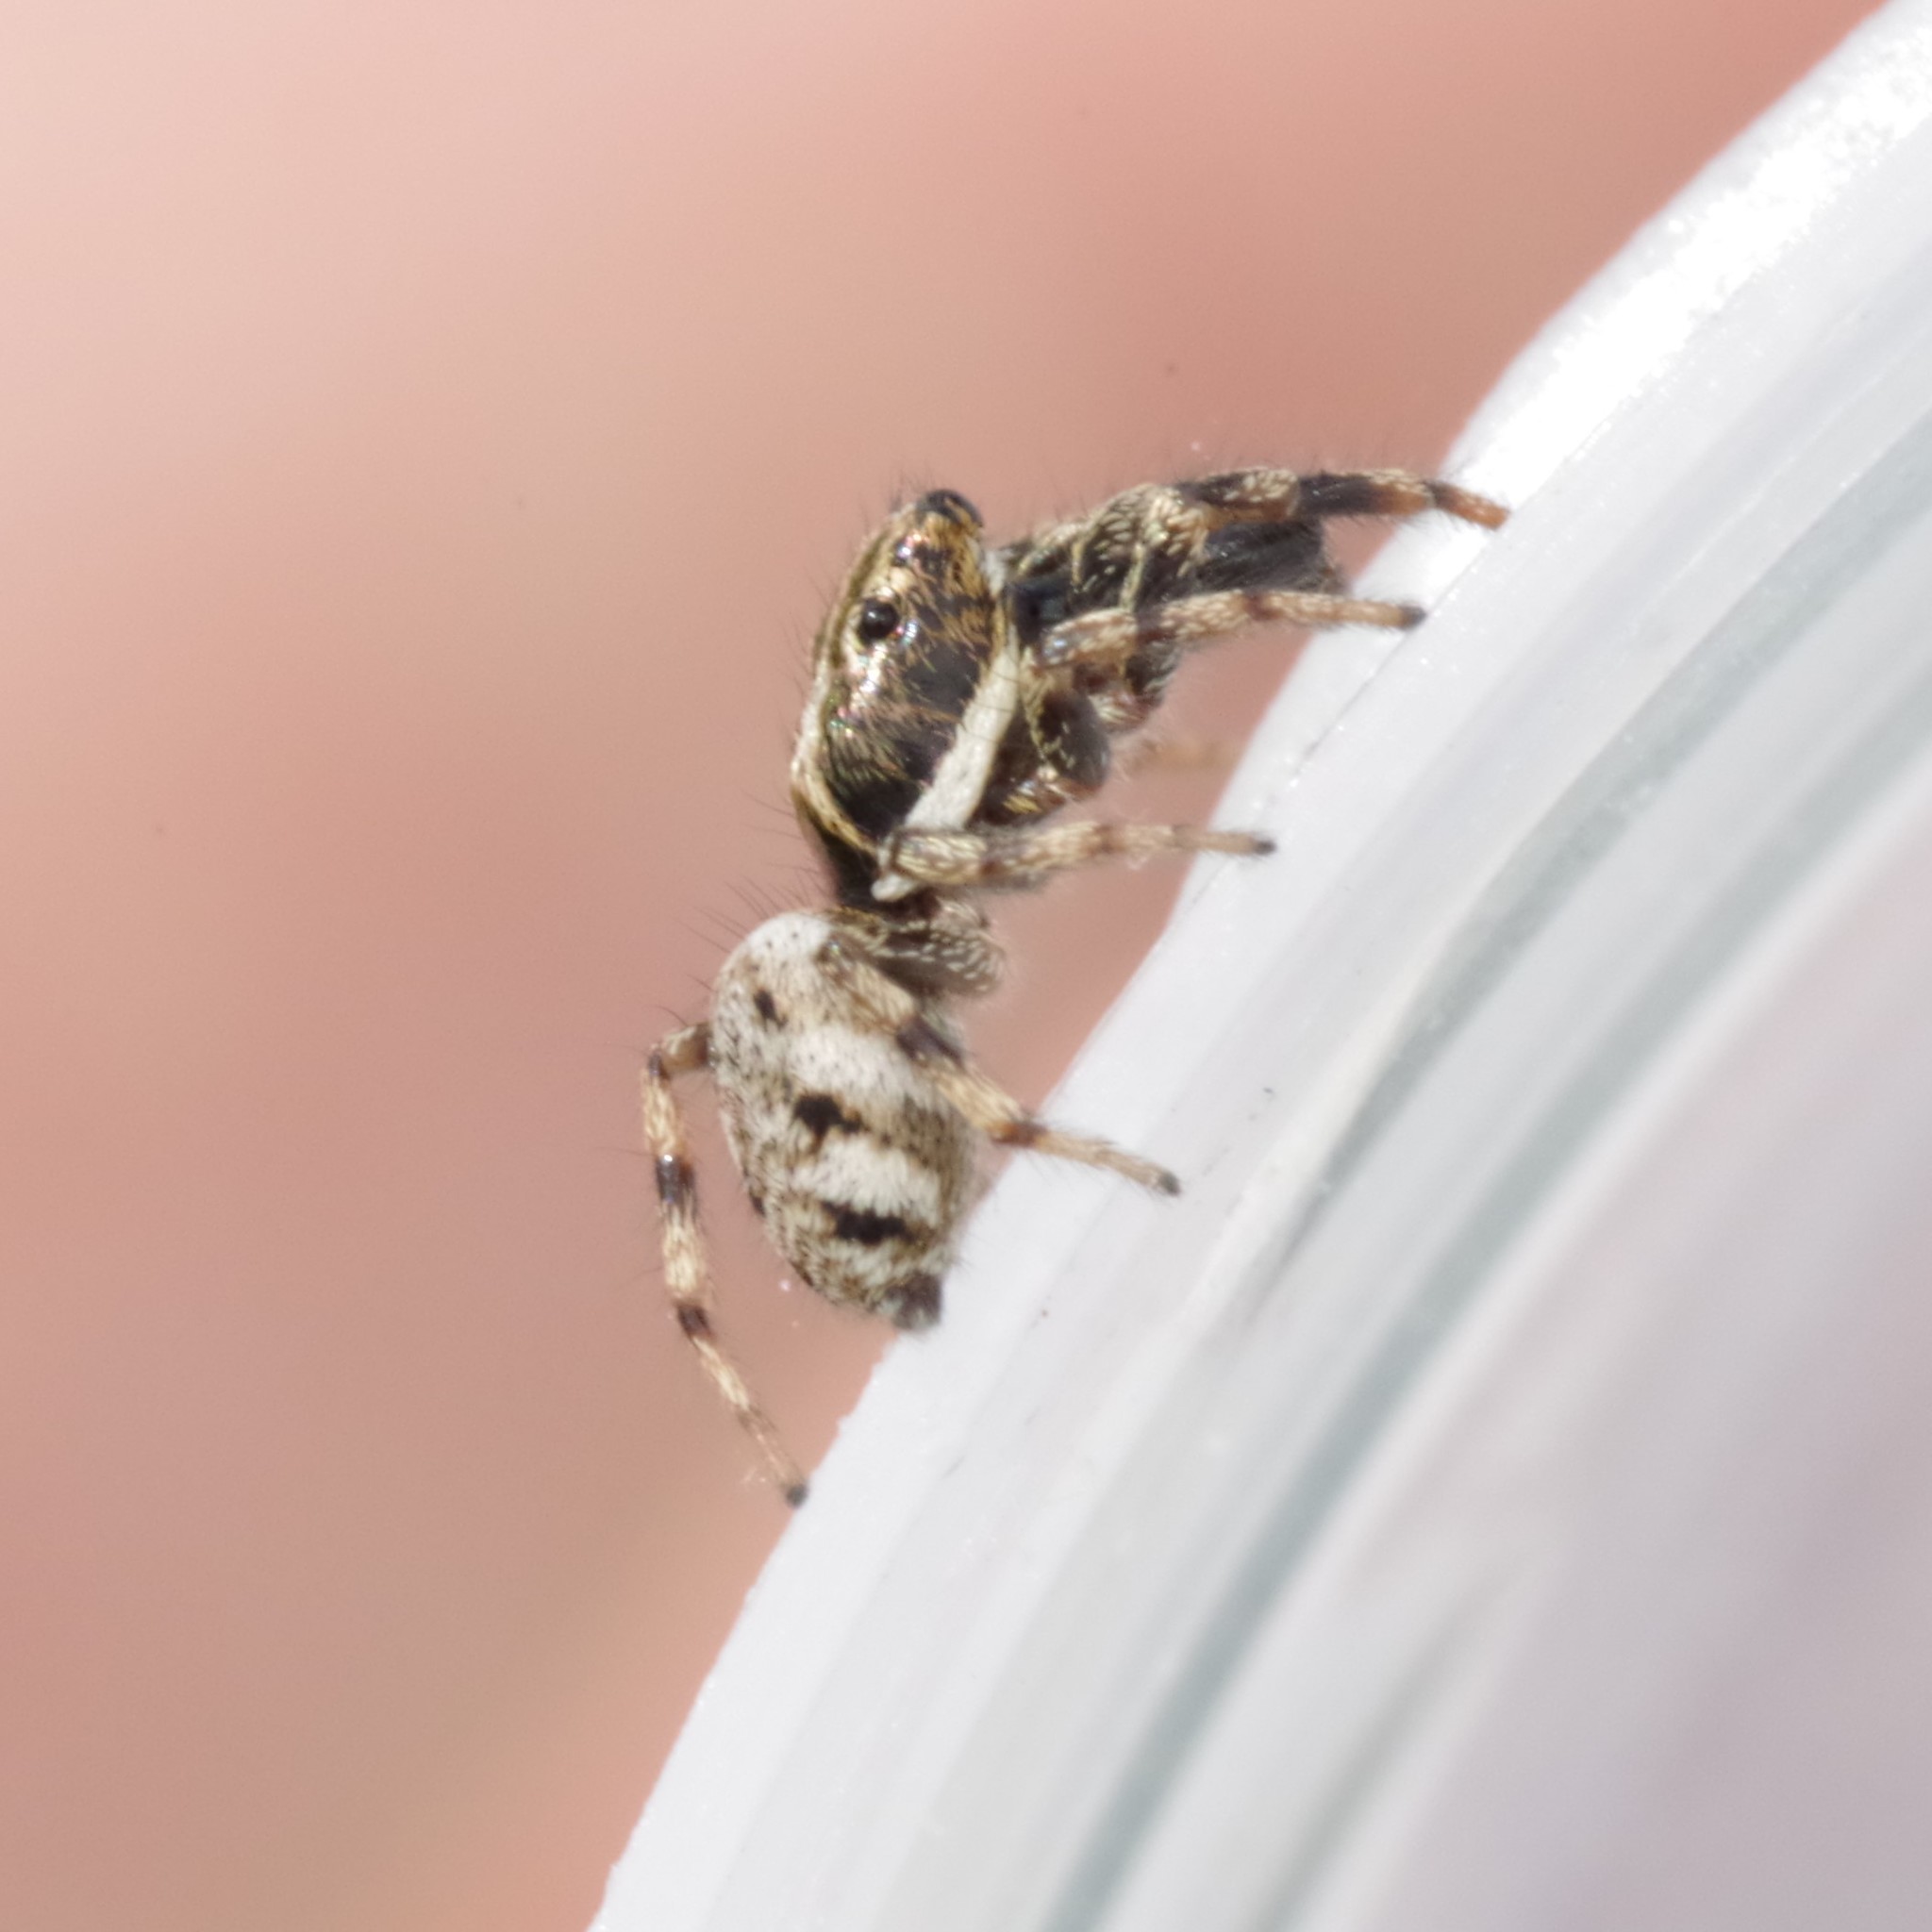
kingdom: Animalia
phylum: Arthropoda
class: Arachnida
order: Araneae
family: Salticidae
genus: Salticus
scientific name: Salticus mutabilis
